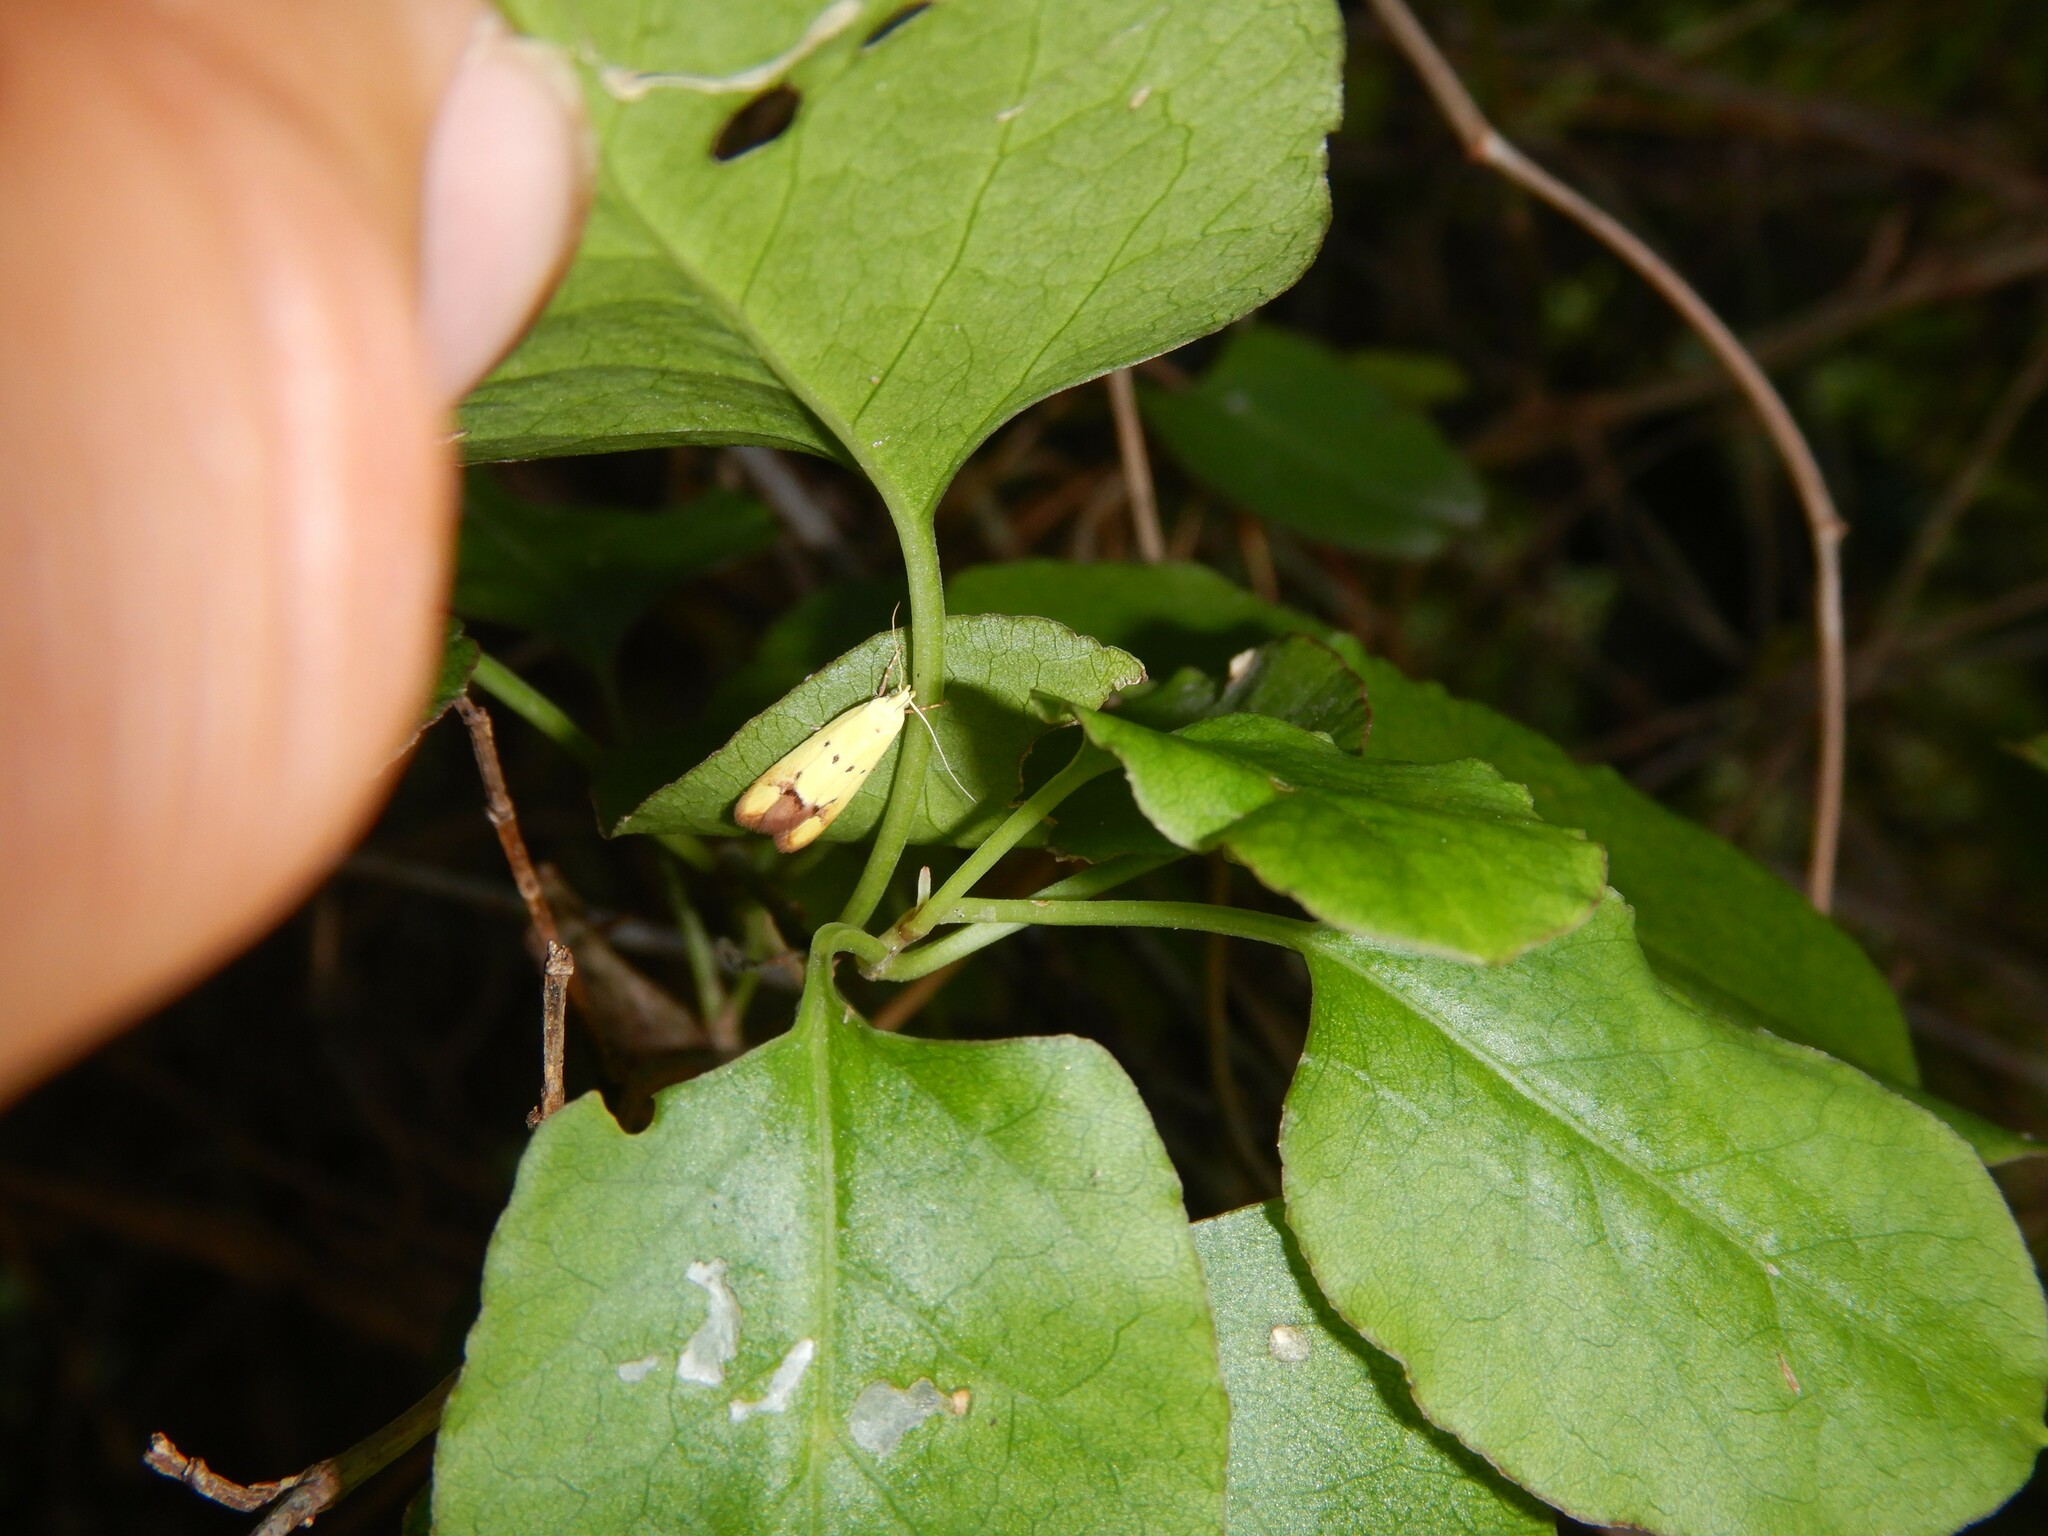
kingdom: Animalia
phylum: Arthropoda
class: Insecta
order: Lepidoptera
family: Oecophoridae
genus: Gymnobathra
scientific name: Gymnobathra flavidella
